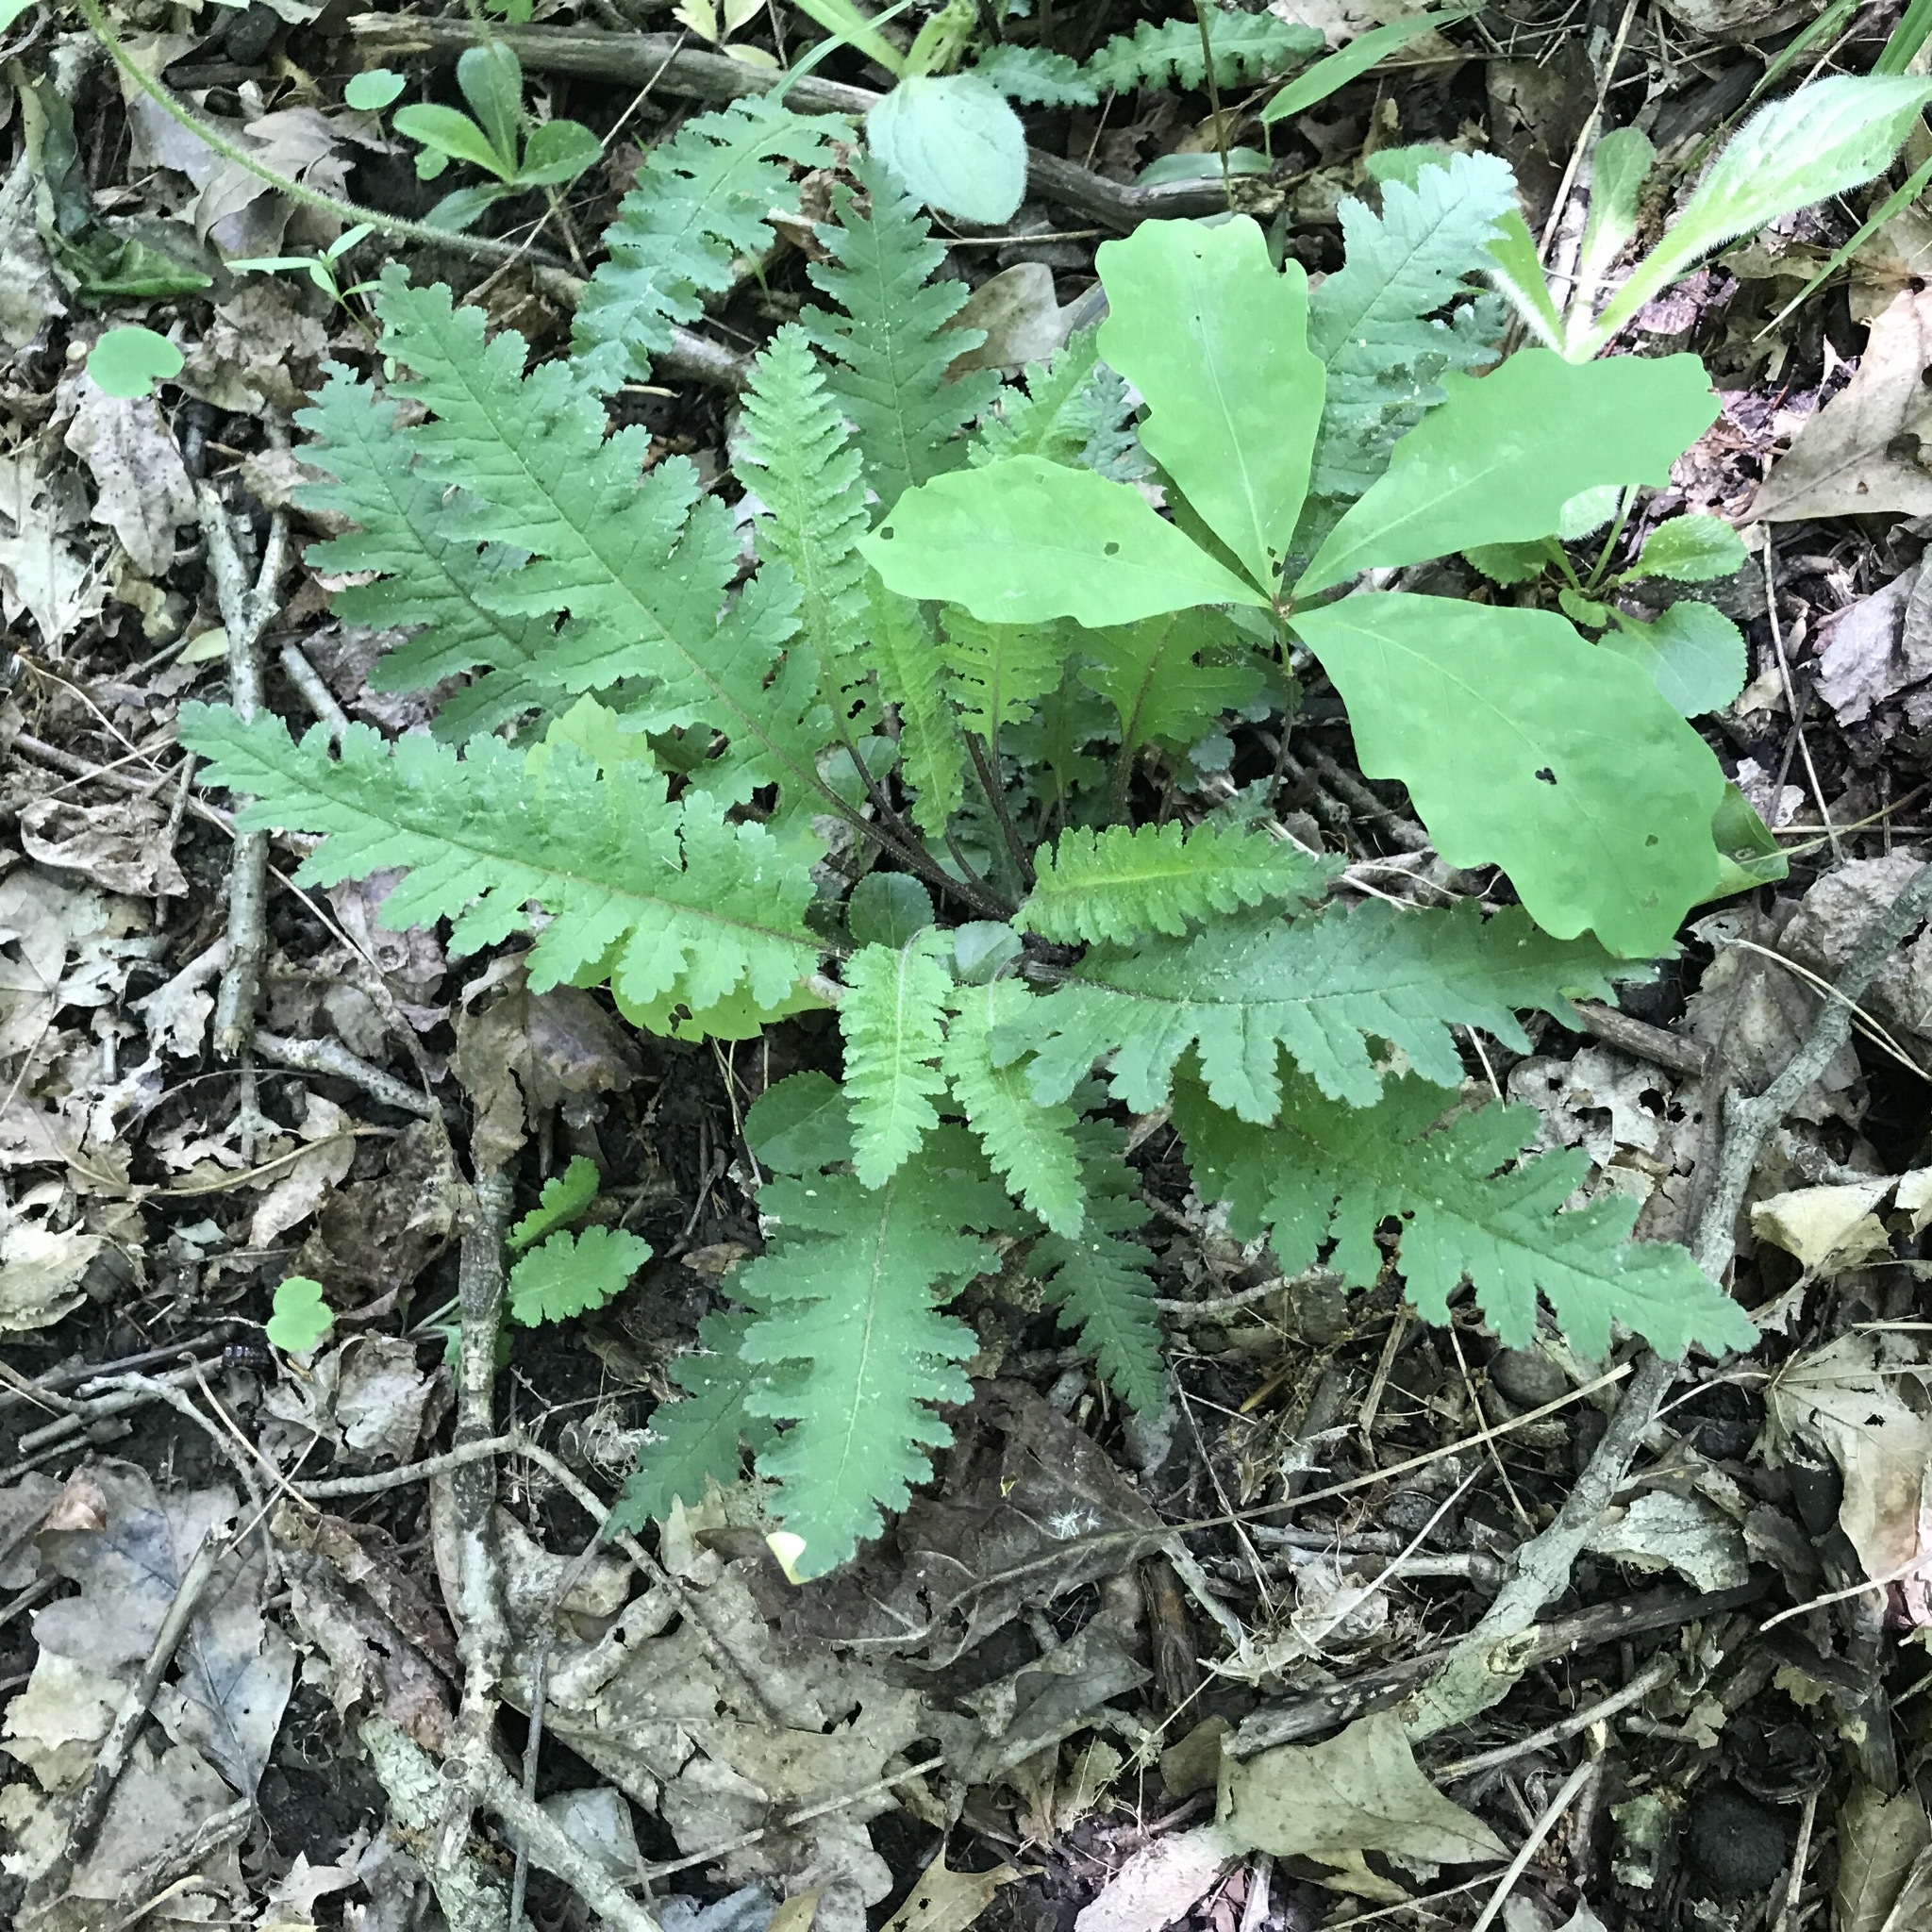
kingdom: Plantae
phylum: Tracheophyta
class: Magnoliopsida
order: Lamiales
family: Orobanchaceae
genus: Pedicularis
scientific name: Pedicularis canadensis
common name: Early lousewort
